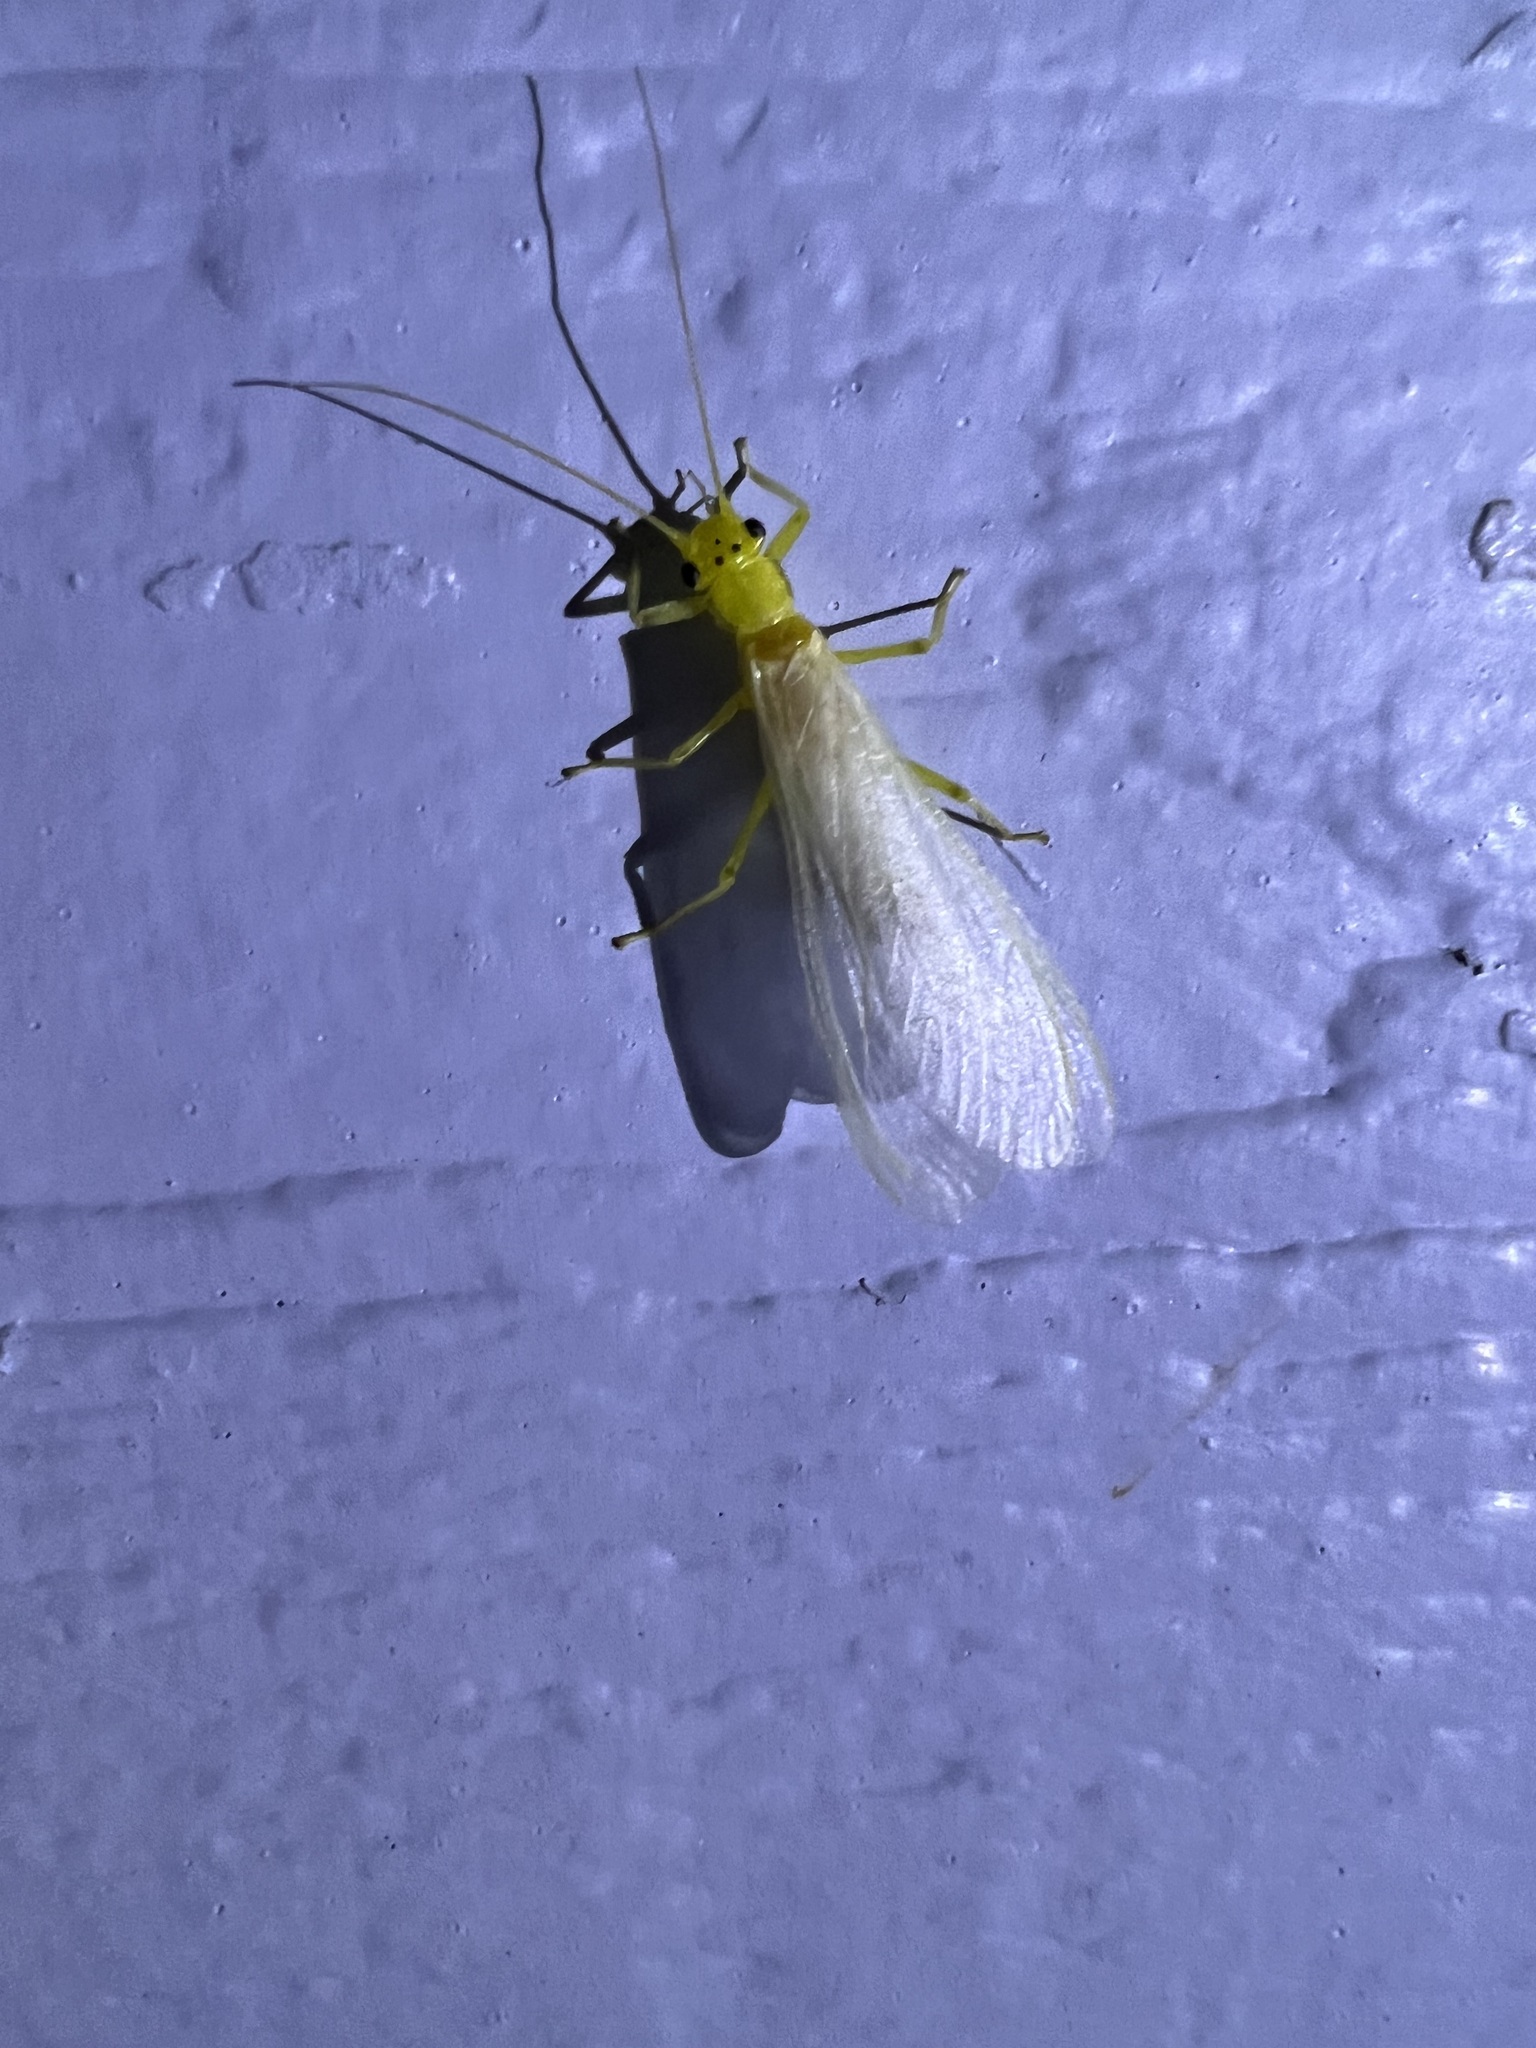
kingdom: Animalia
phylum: Arthropoda
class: Insecta
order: Plecoptera
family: Perlidae
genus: Eccoptura
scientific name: Eccoptura xanthenes
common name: Yellow stone
